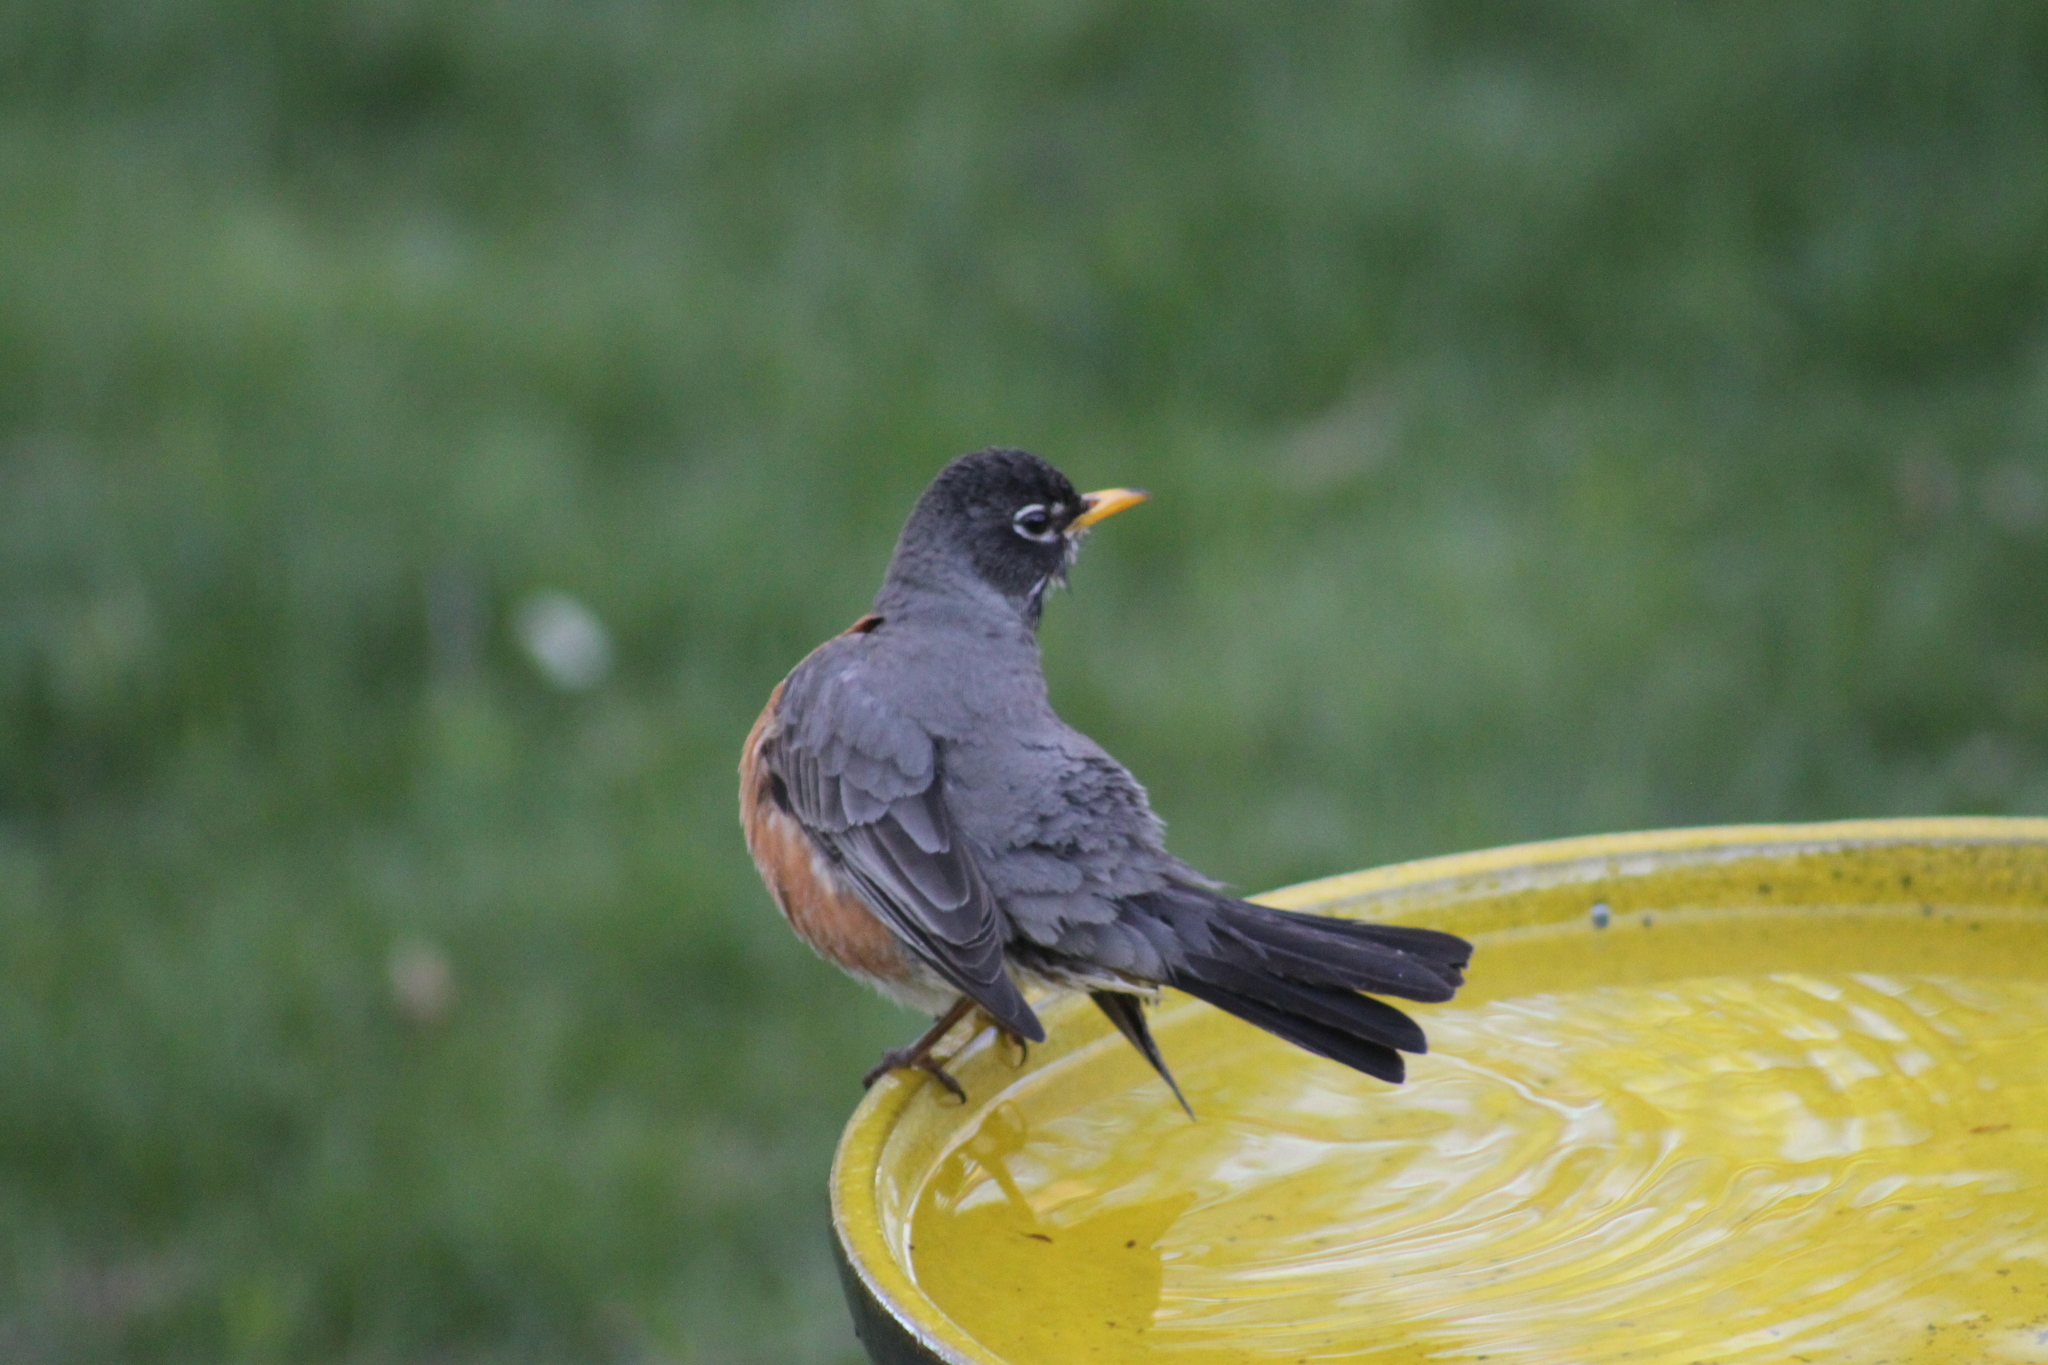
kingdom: Animalia
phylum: Chordata
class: Aves
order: Passeriformes
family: Turdidae
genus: Turdus
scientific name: Turdus migratorius
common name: American robin
